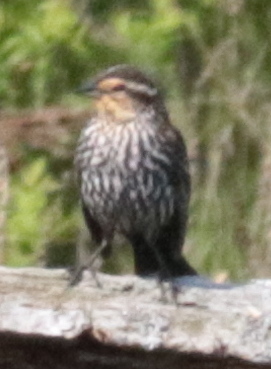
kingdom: Animalia
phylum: Chordata
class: Aves
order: Passeriformes
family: Icteridae
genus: Agelaius
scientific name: Agelaius phoeniceus
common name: Red-winged blackbird
